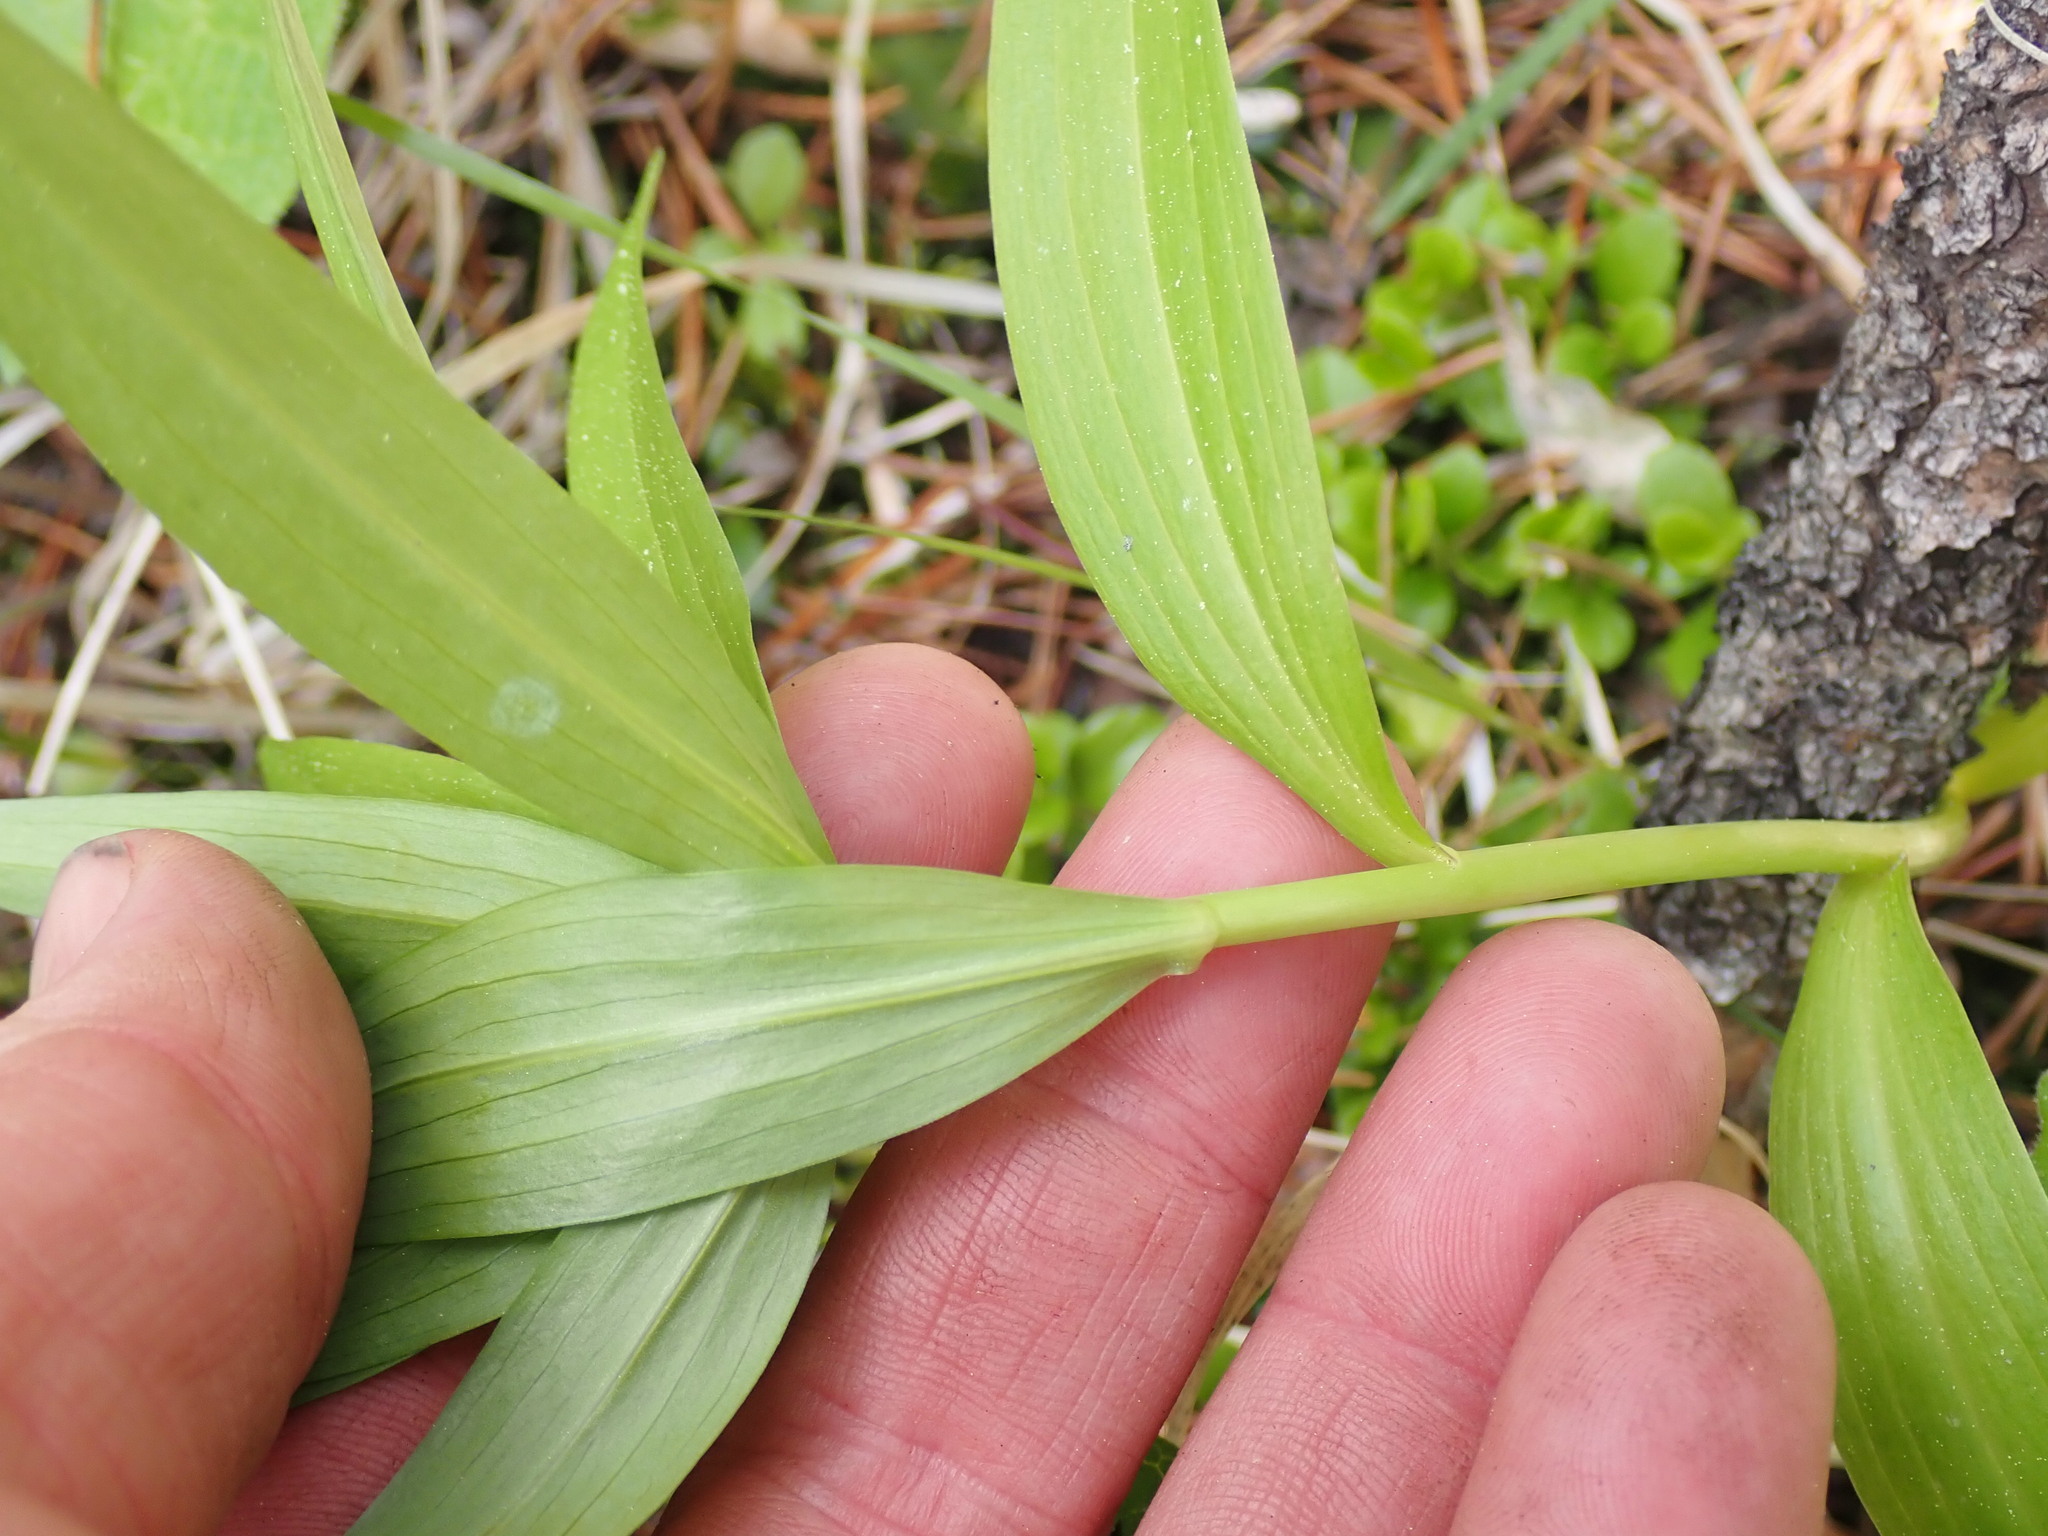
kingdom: Plantae
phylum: Tracheophyta
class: Liliopsida
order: Liliales
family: Liliaceae
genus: Lilium
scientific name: Lilium columbianum
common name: Columbia lily
